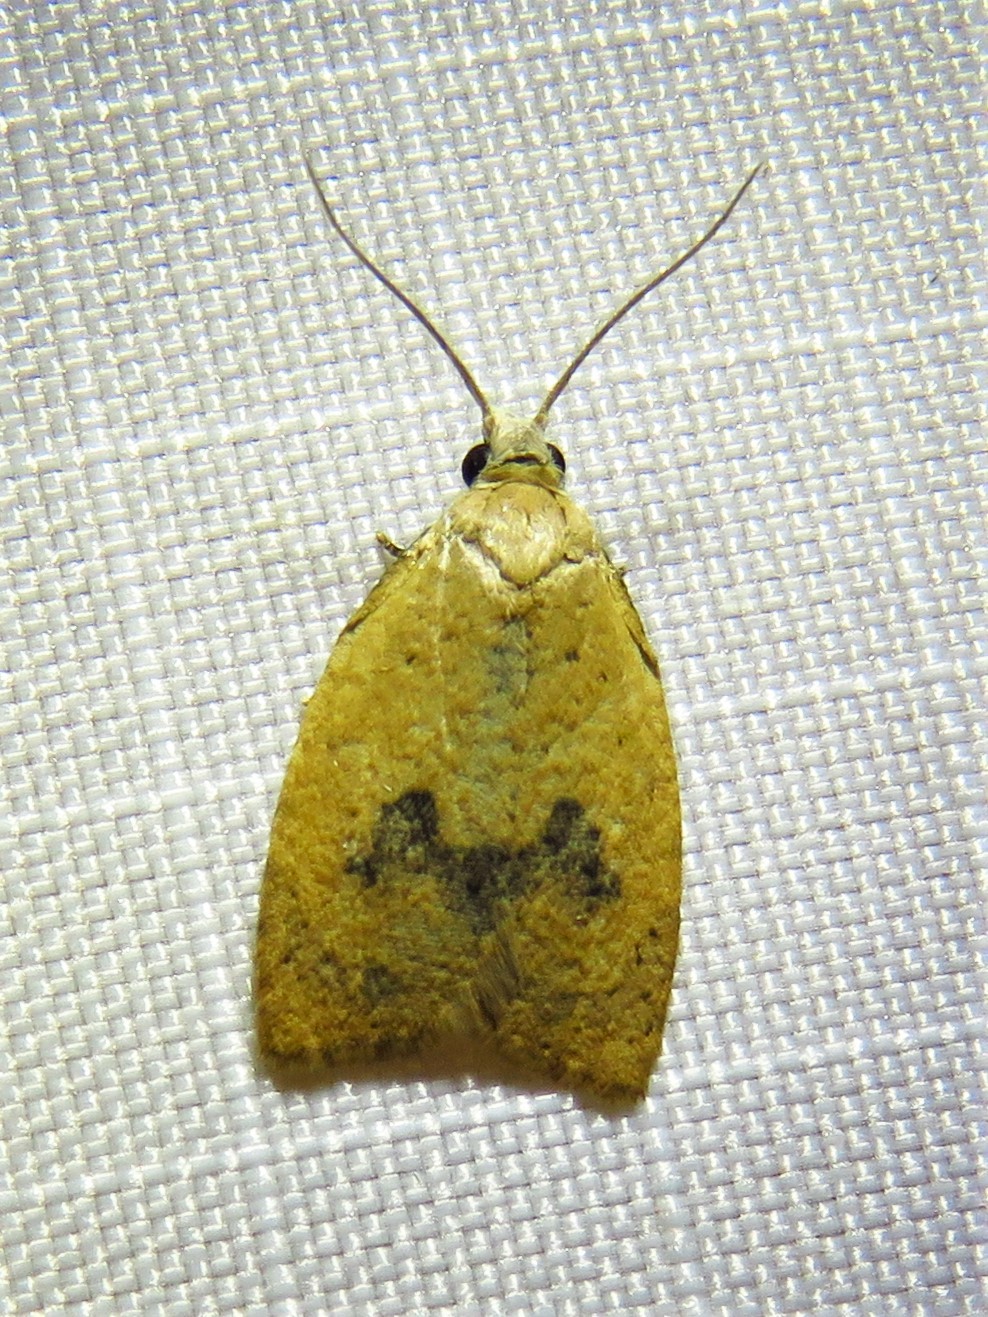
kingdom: Animalia
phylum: Arthropoda
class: Insecta
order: Lepidoptera
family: Tortricidae
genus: Sparganothoides
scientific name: Sparganothoides lentiginosana
